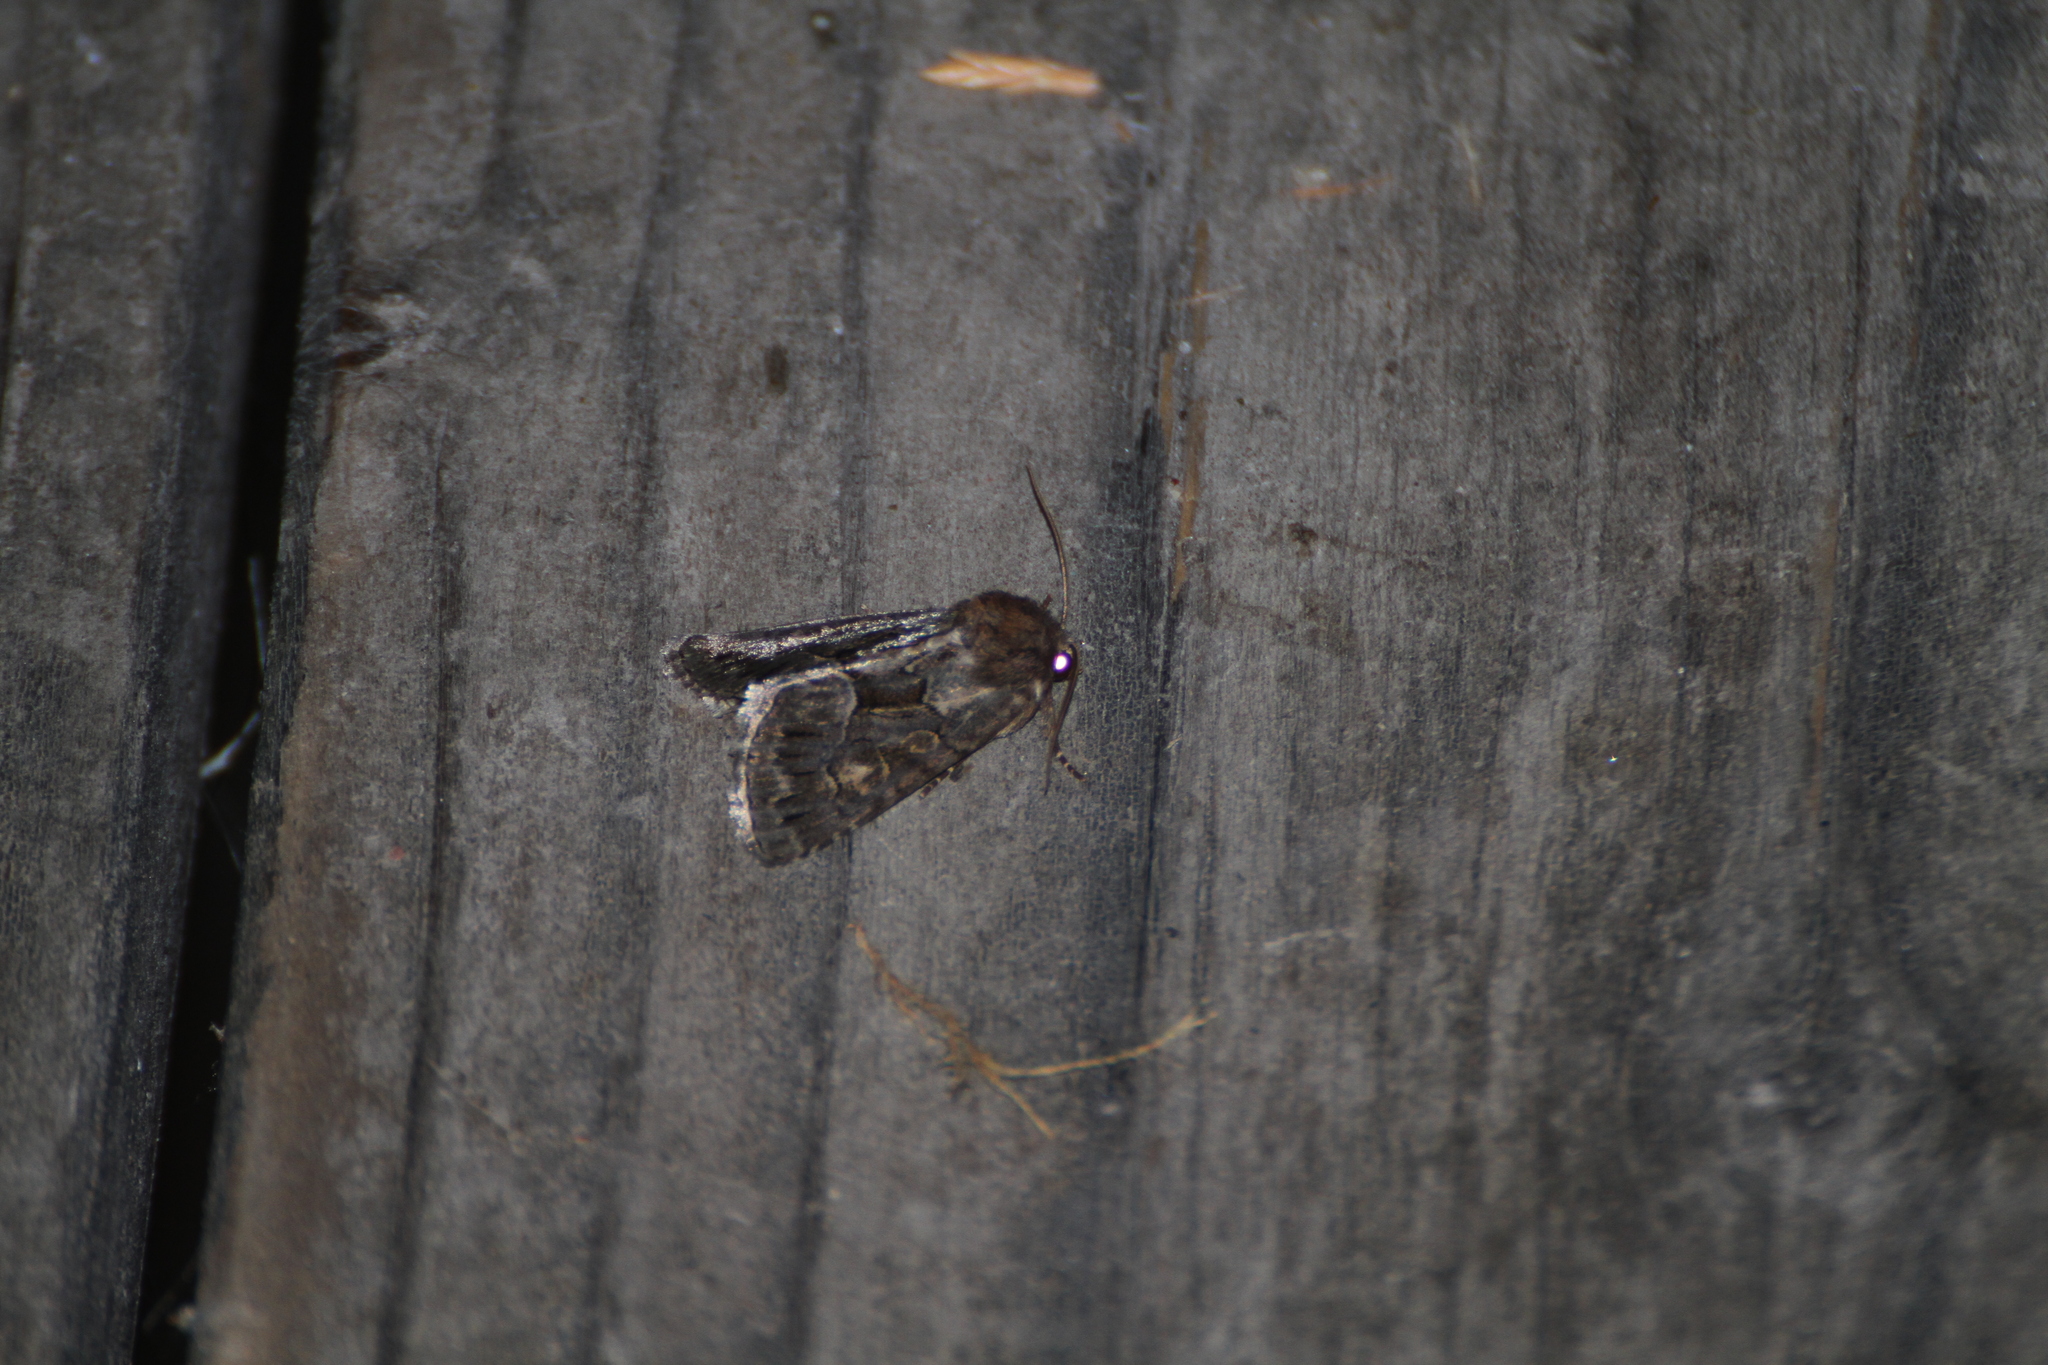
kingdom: Animalia
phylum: Arthropoda
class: Insecta
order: Lepidoptera
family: Noctuidae
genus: Thalpophila
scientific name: Thalpophila matura
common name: Straw underwing
